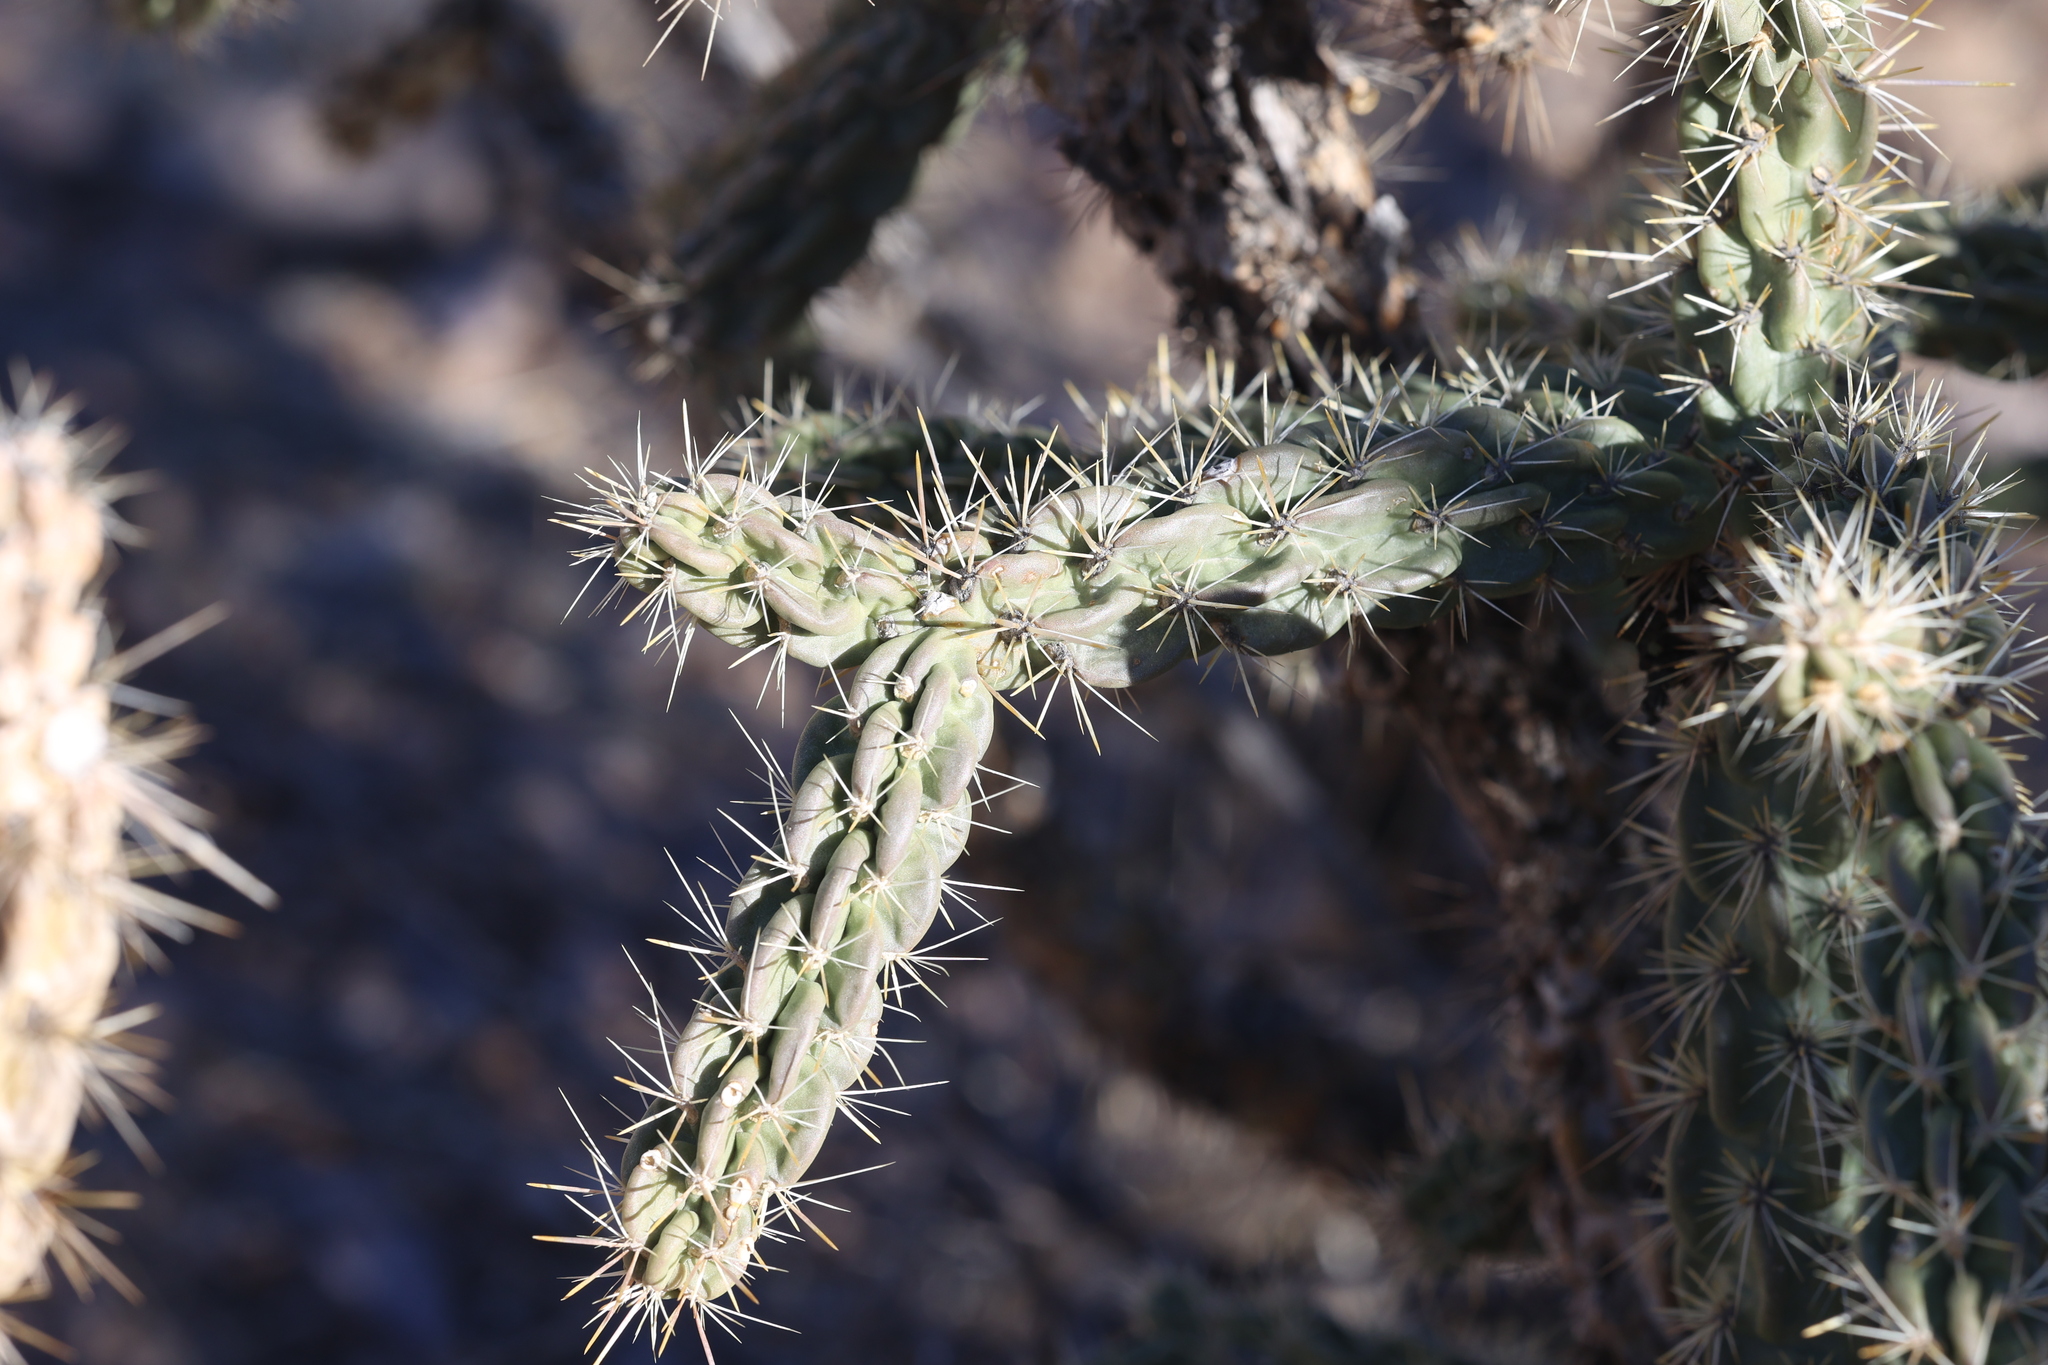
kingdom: Plantae
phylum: Tracheophyta
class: Magnoliopsida
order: Caryophyllales
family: Cactaceae
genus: Cylindropuntia
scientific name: Cylindropuntia imbricata
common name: Candelabrum cactus
